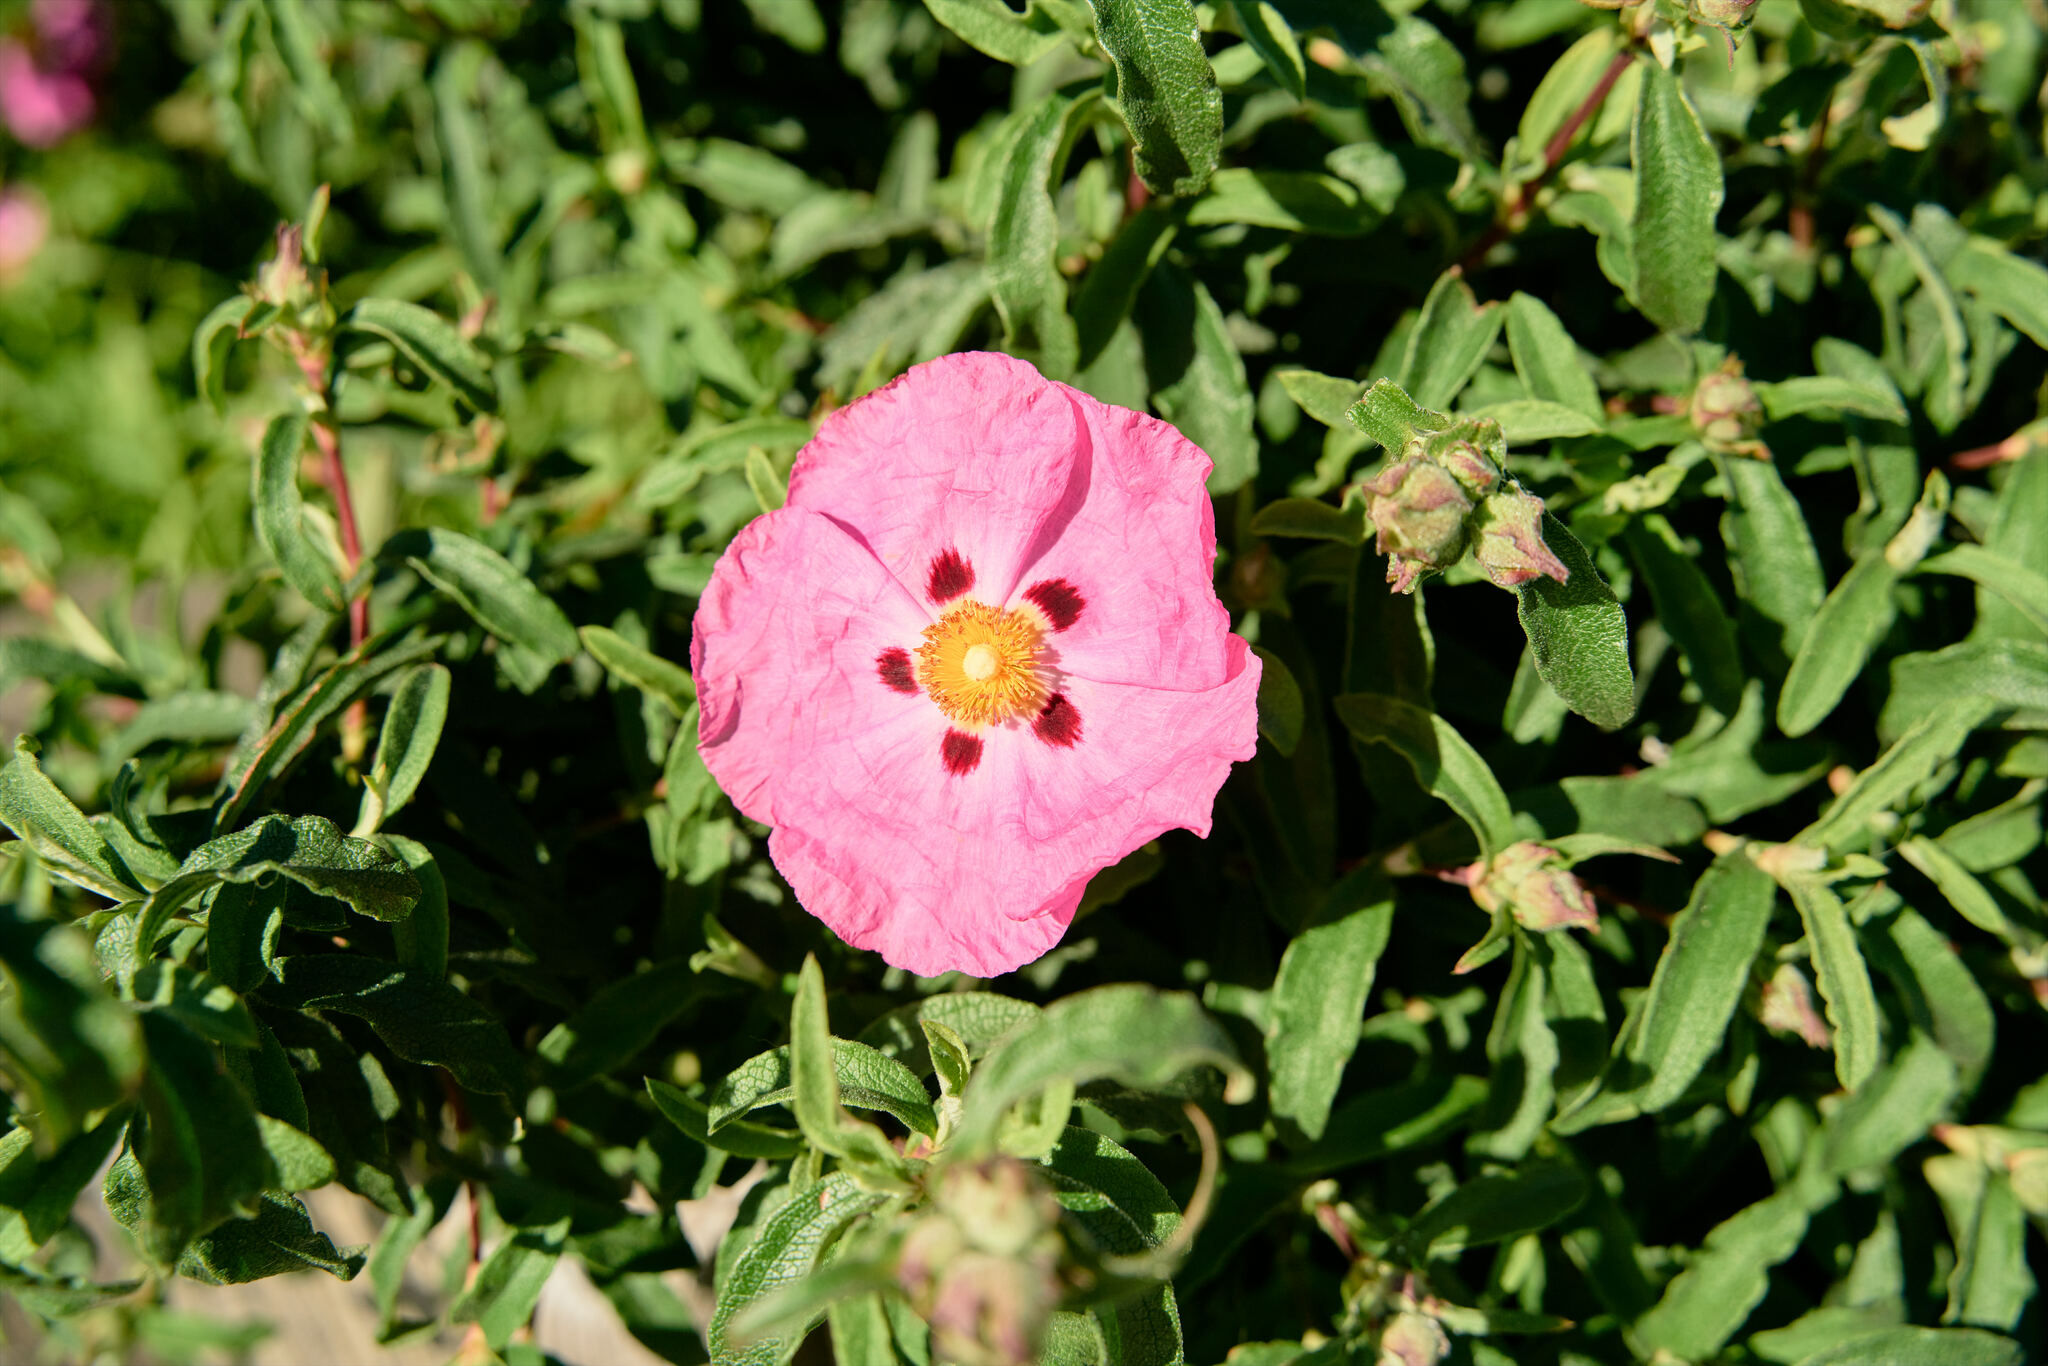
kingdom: Plantae
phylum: Tracheophyta
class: Magnoliopsida
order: Malvales
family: Cistaceae
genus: Cistus
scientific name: Cistus purpureus
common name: Purple cistus
